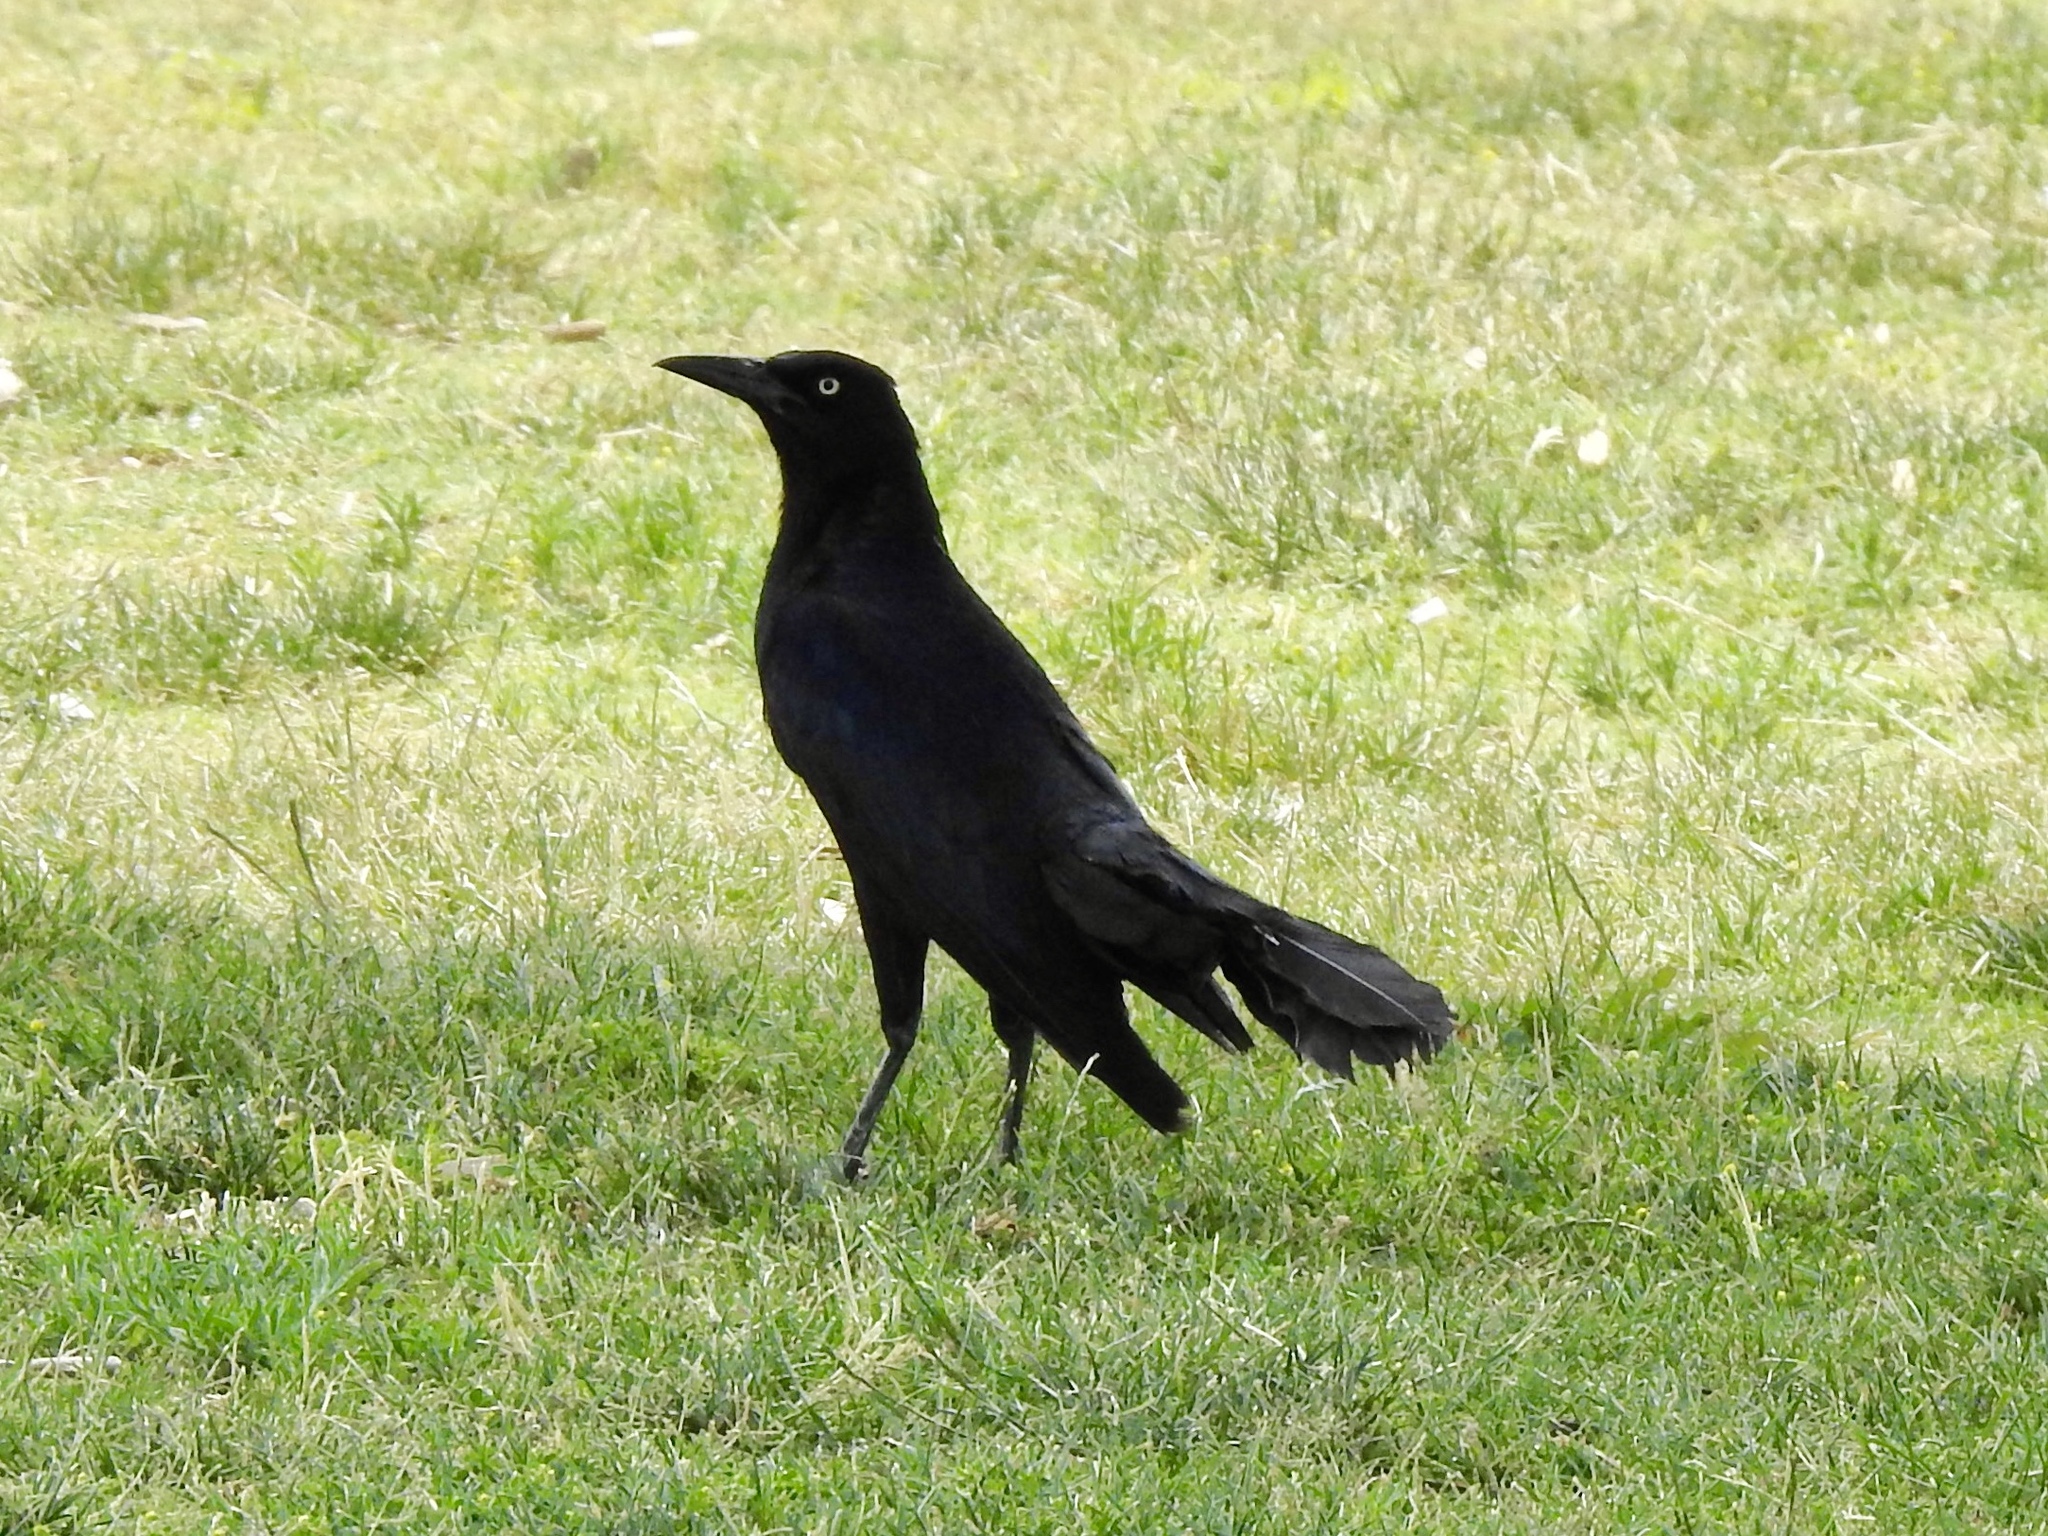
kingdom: Animalia
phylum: Chordata
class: Aves
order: Passeriformes
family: Icteridae
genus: Quiscalus
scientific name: Quiscalus mexicanus
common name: Great-tailed grackle
